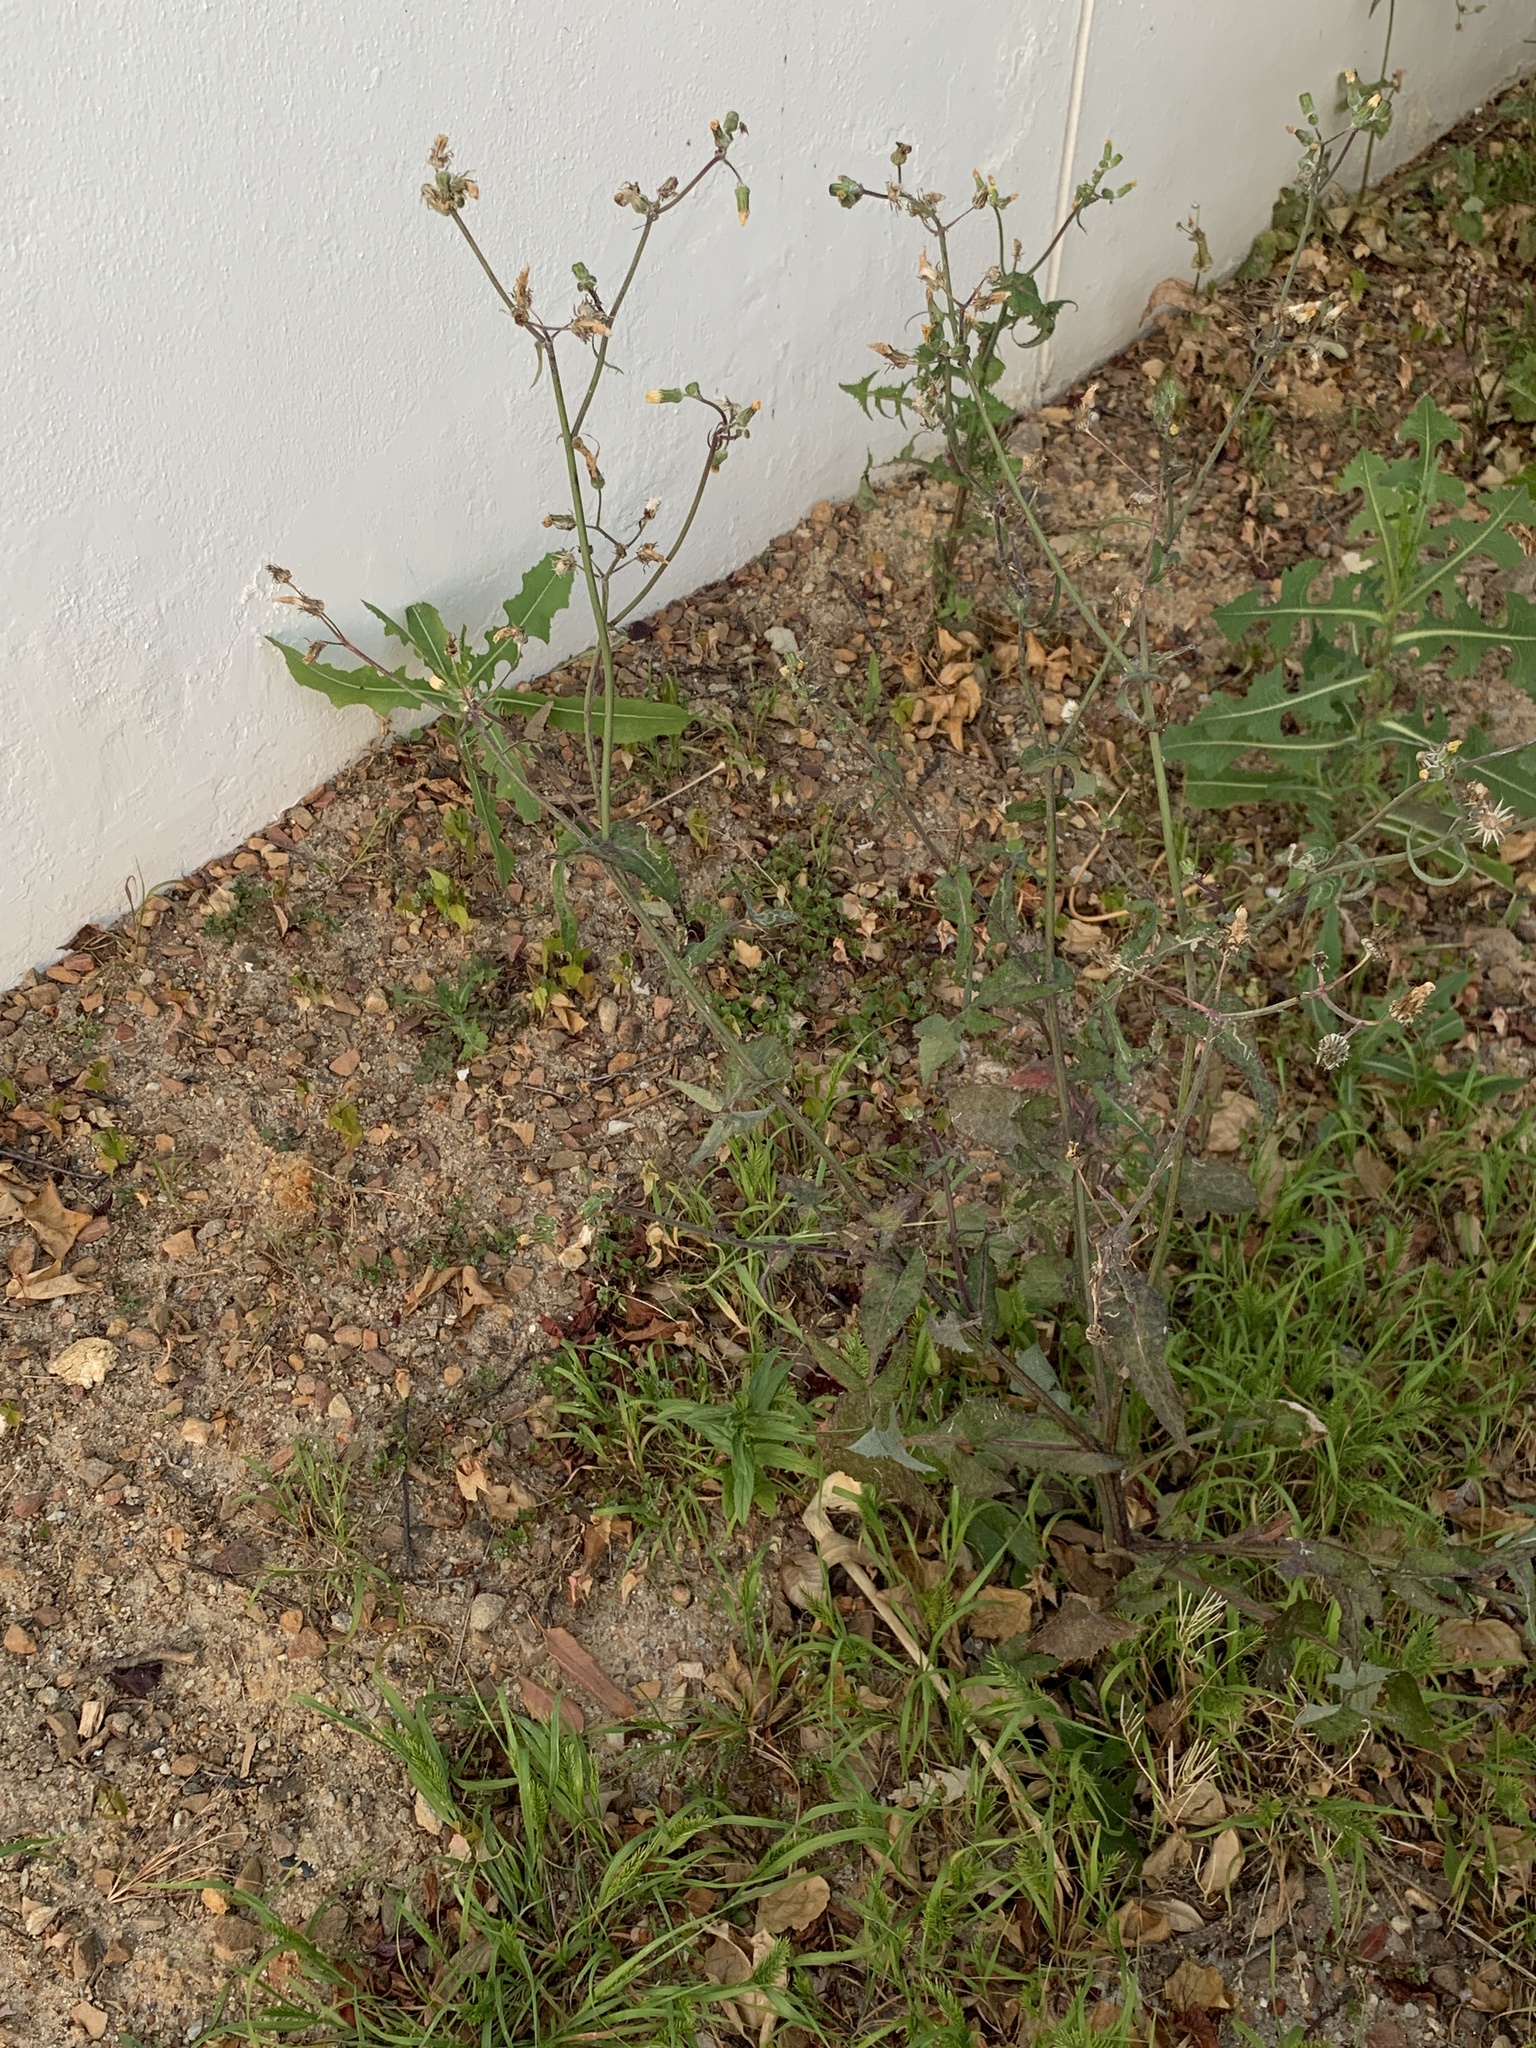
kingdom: Plantae
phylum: Tracheophyta
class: Magnoliopsida
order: Asterales
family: Asteraceae
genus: Sonchus
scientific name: Sonchus oleraceus
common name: Common sowthistle
